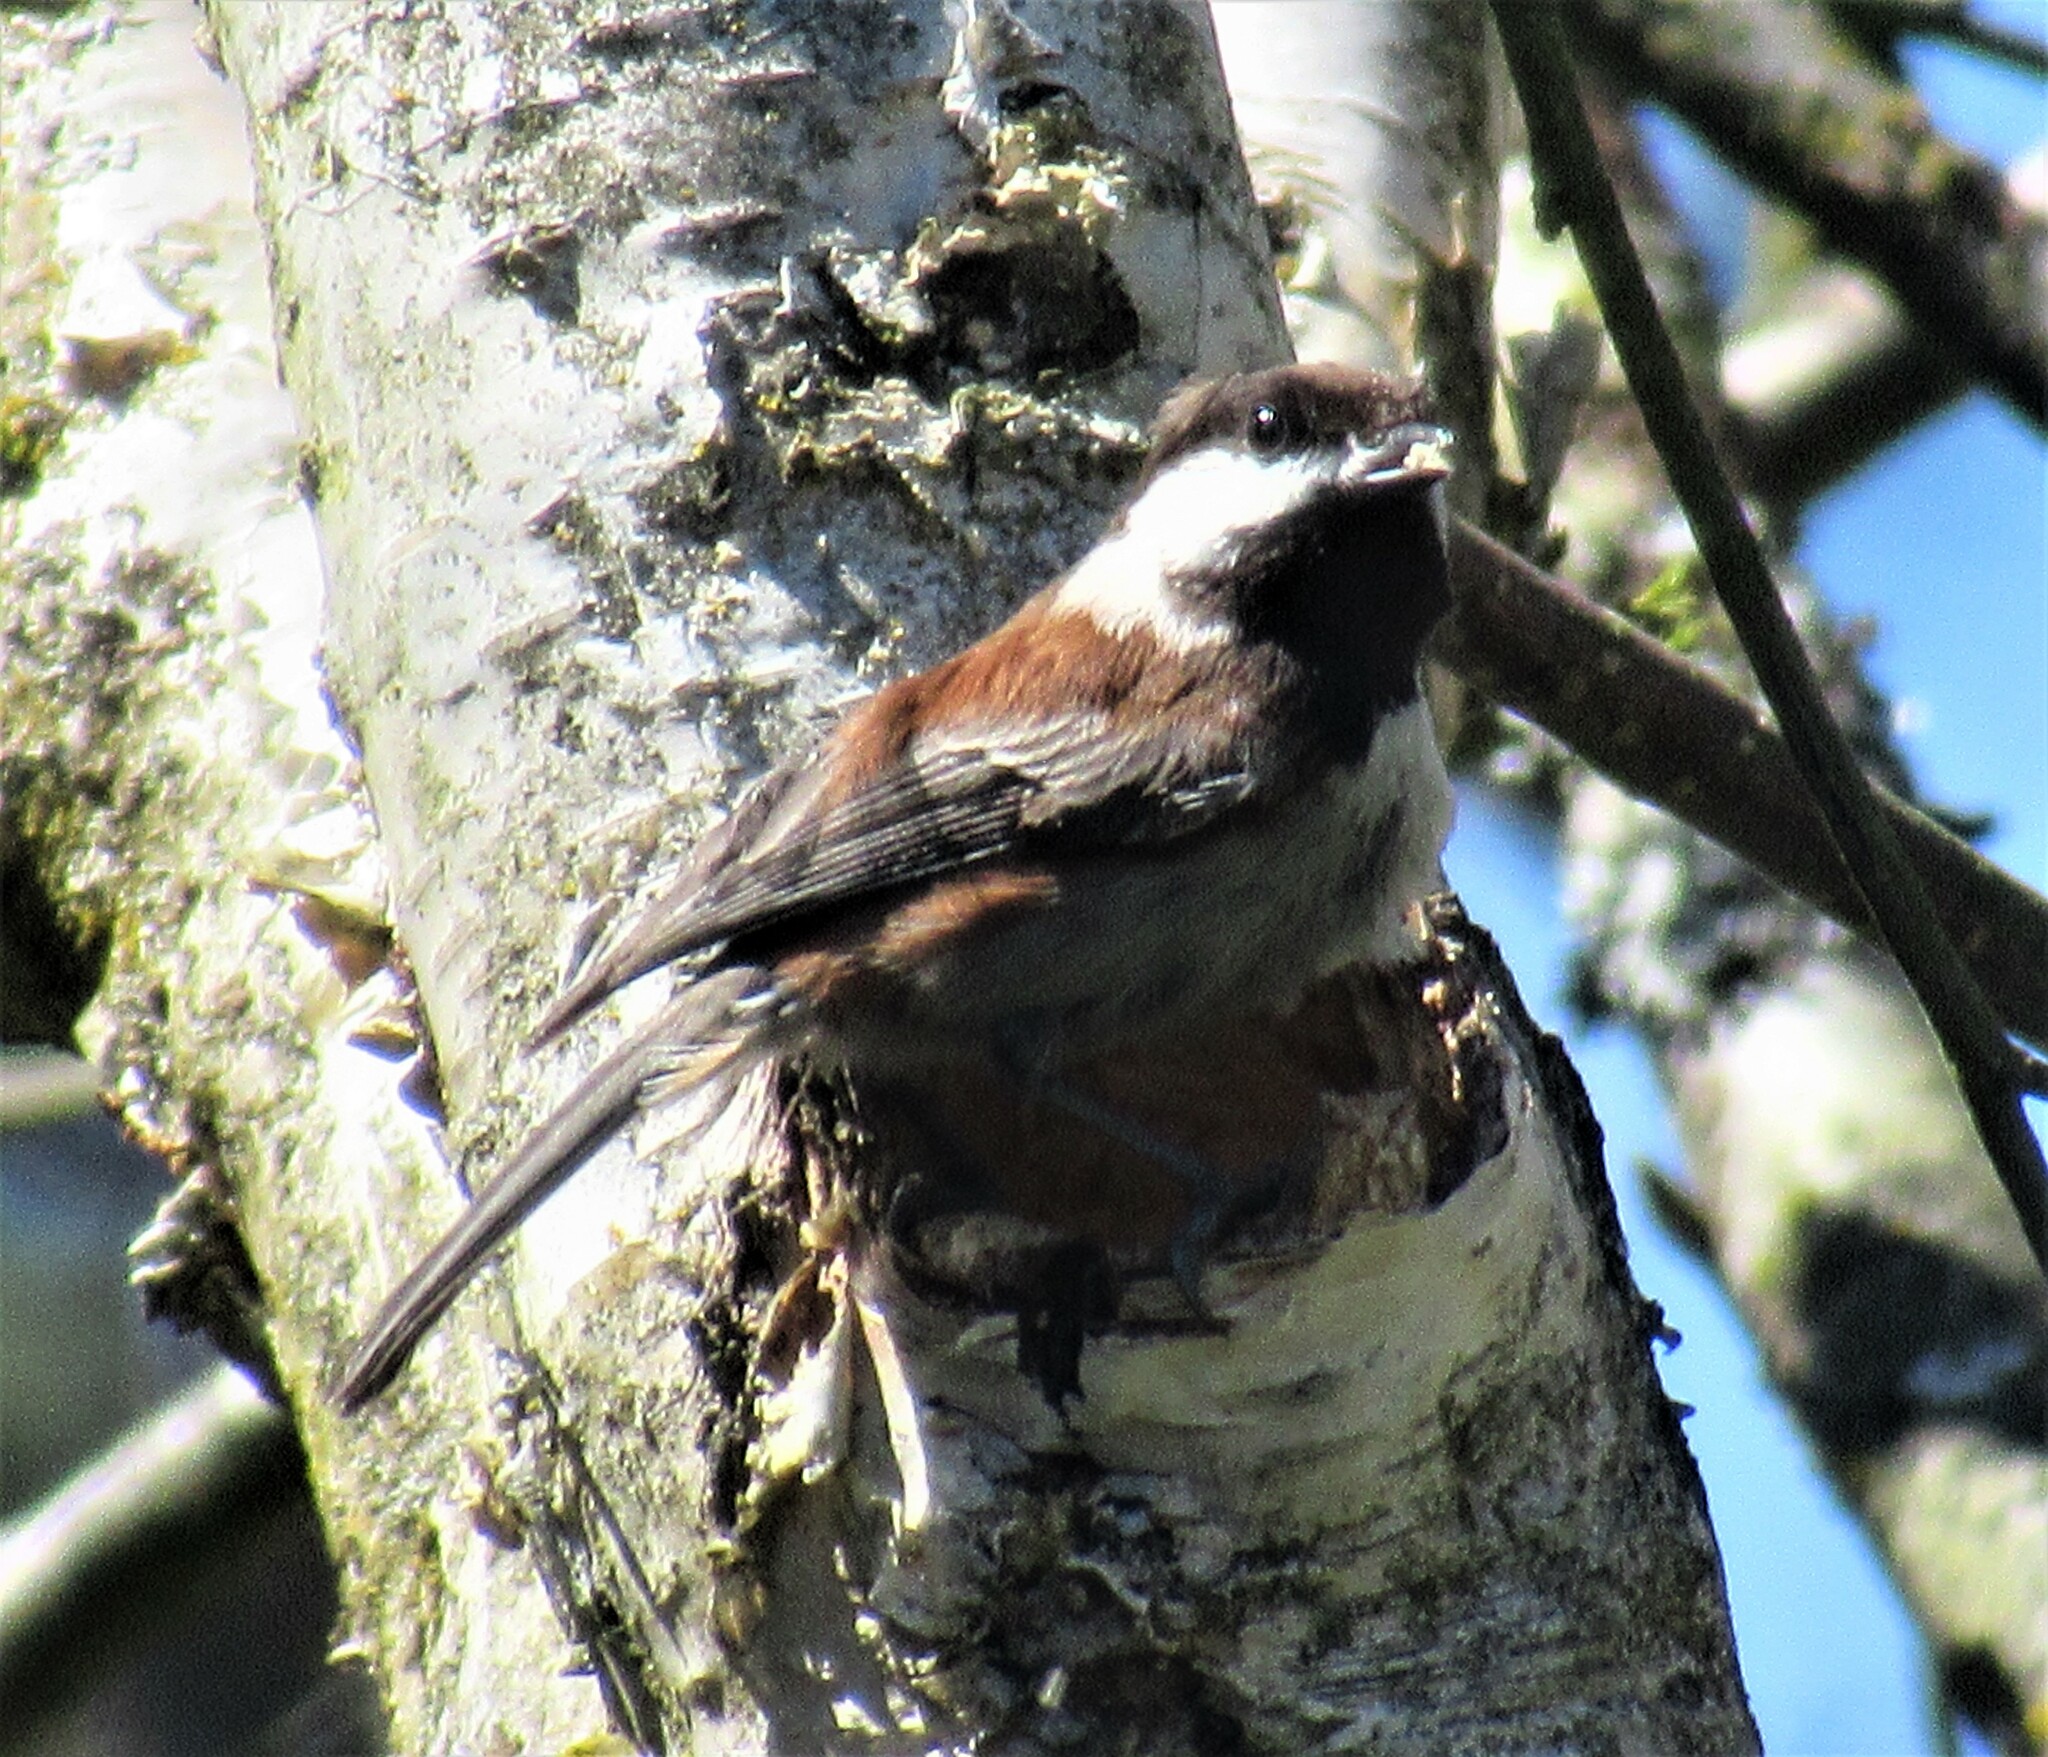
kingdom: Animalia
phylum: Chordata
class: Aves
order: Passeriformes
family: Paridae
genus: Poecile
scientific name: Poecile rufescens
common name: Chestnut-backed chickadee
